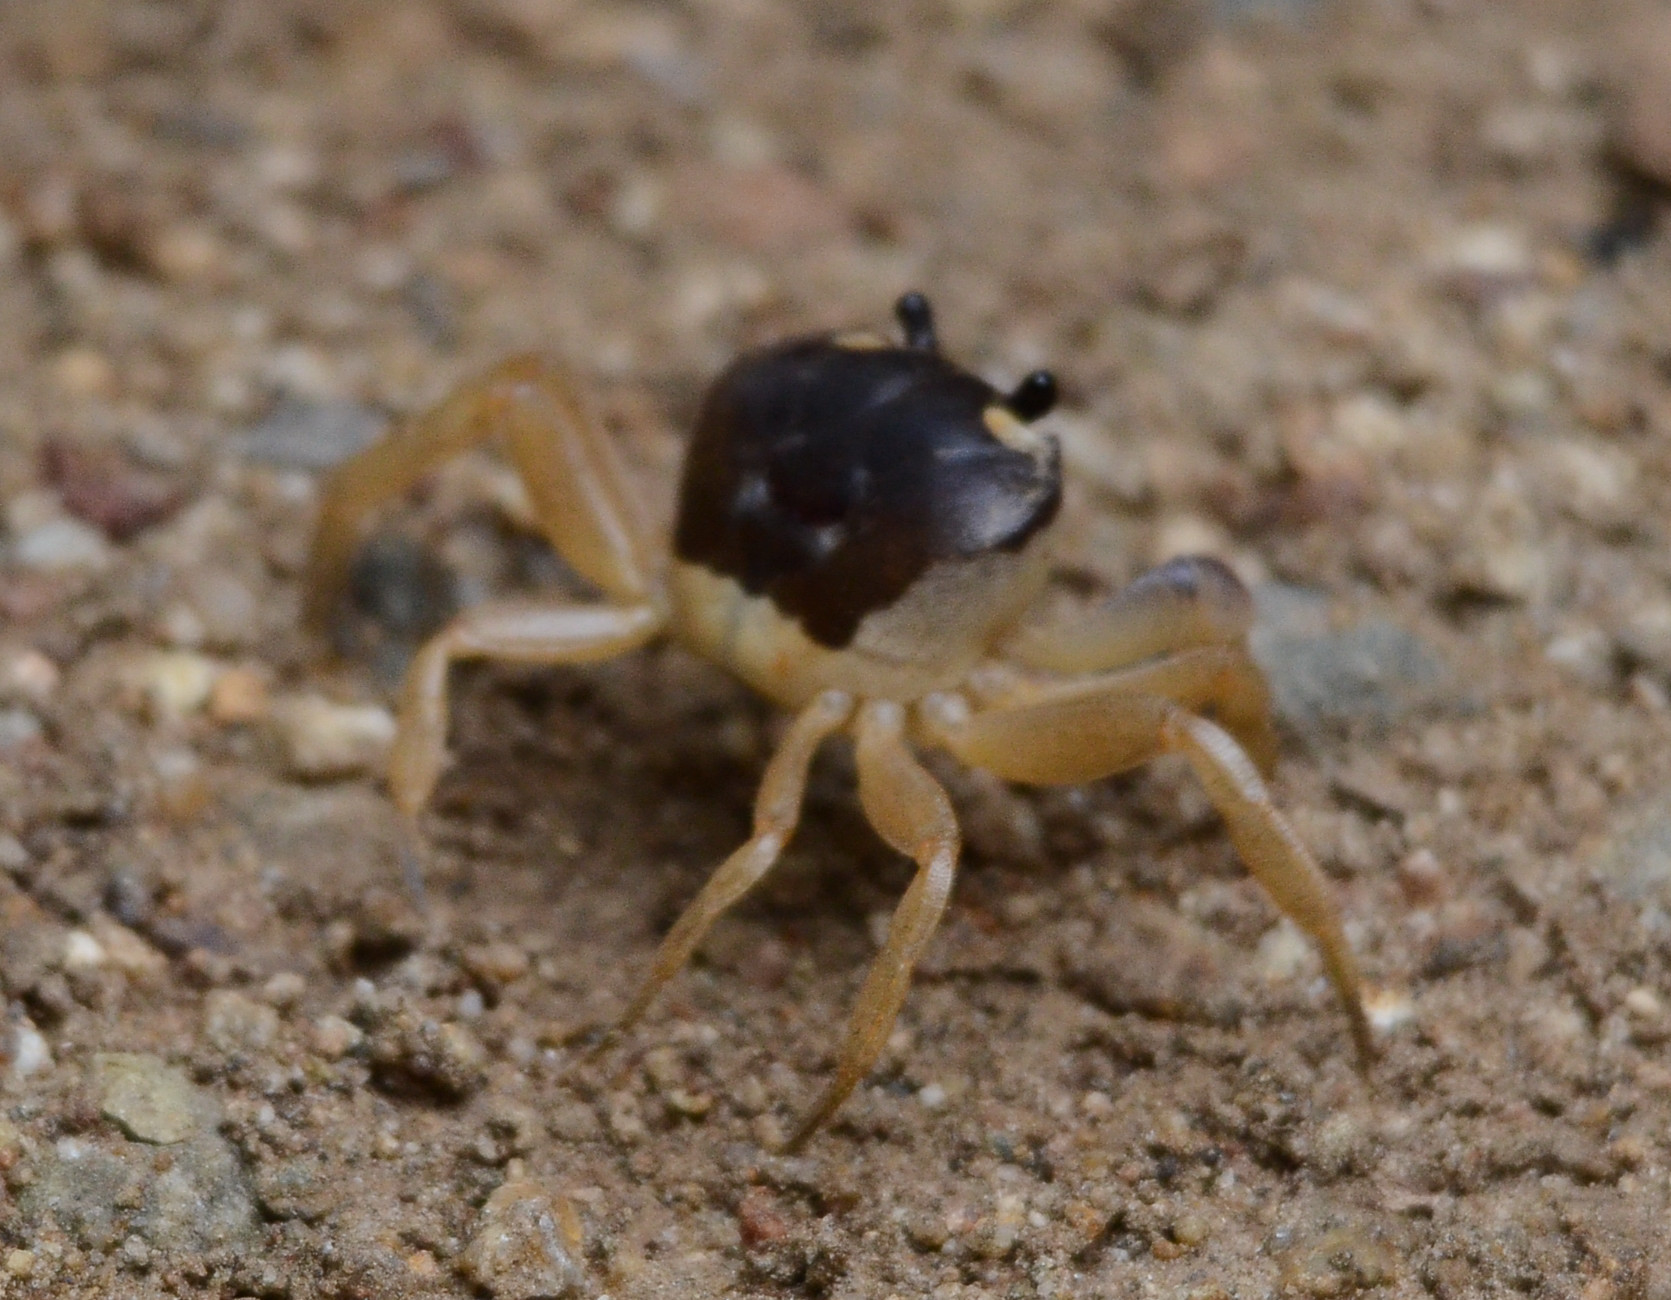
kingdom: Animalia
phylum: Arthropoda
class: Malacostraca
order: Decapoda
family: Gecarcinidae
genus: Gecarcinus
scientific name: Gecarcinus quadratus
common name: Halloween crab
